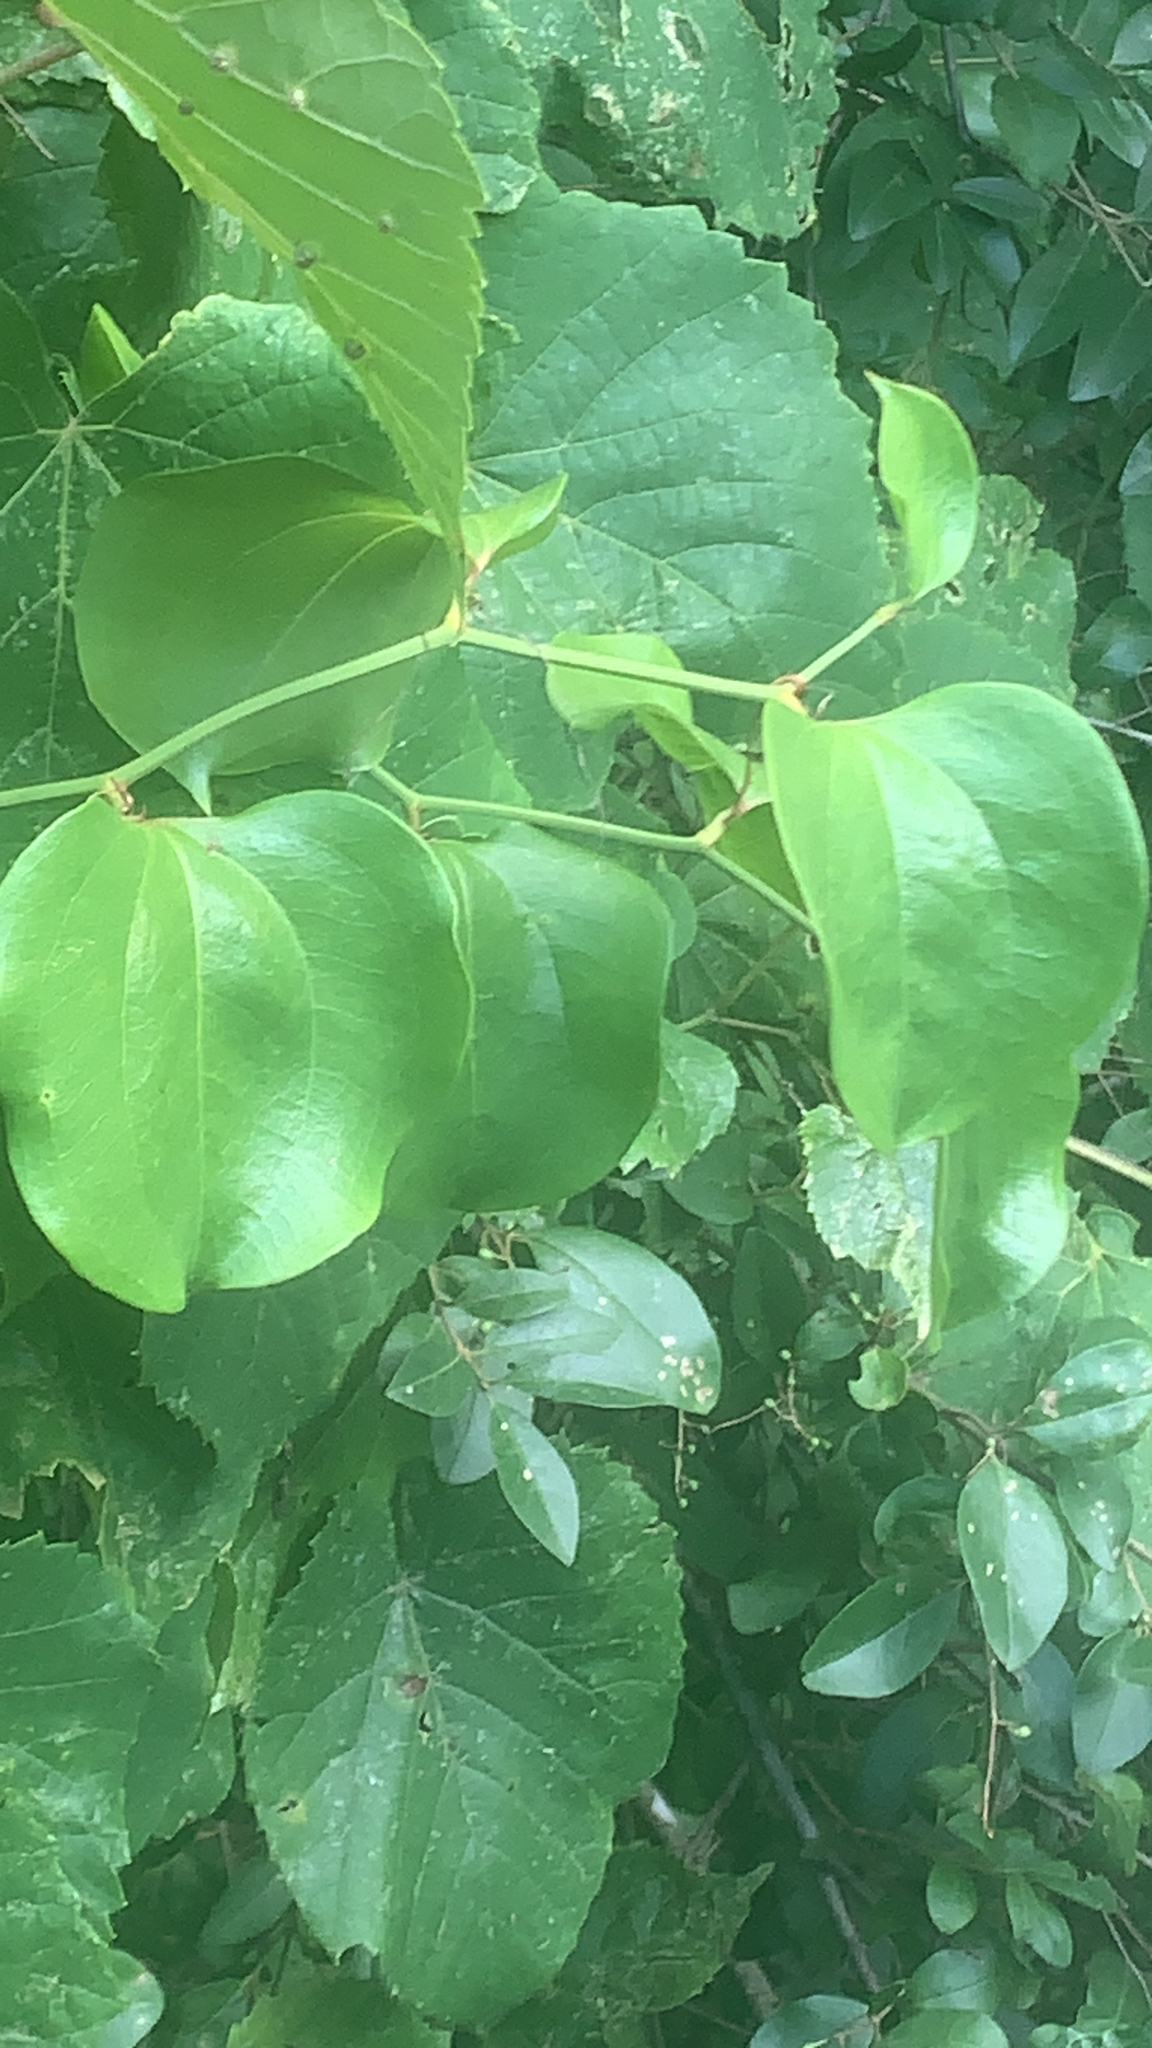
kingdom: Plantae
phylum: Tracheophyta
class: Liliopsida
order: Liliales
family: Smilacaceae
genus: Smilax
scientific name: Smilax rotundifolia
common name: Bullbriar
